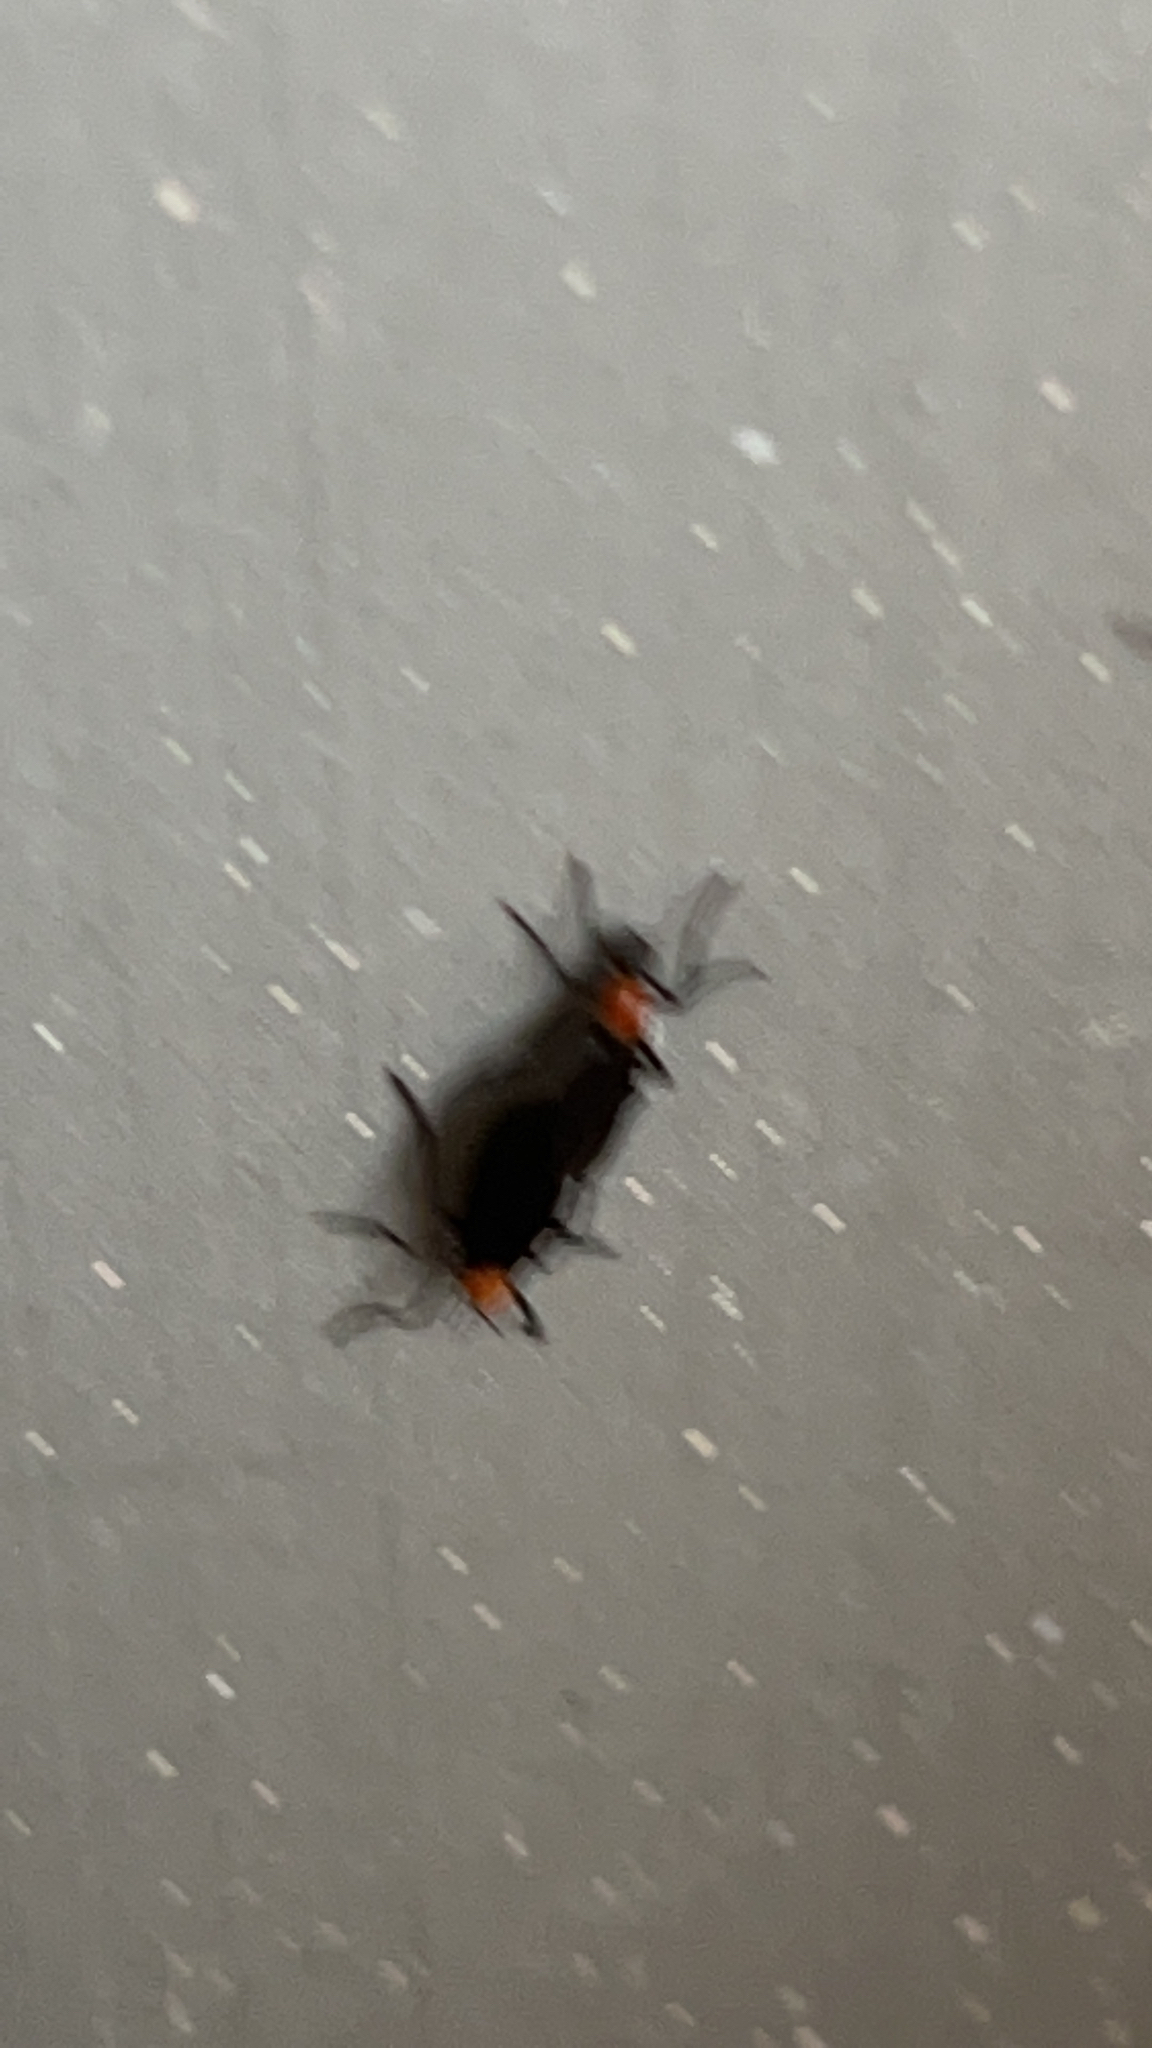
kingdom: Animalia
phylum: Arthropoda
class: Insecta
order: Diptera
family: Bibionidae
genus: Plecia
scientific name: Plecia nearctica
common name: March fly
